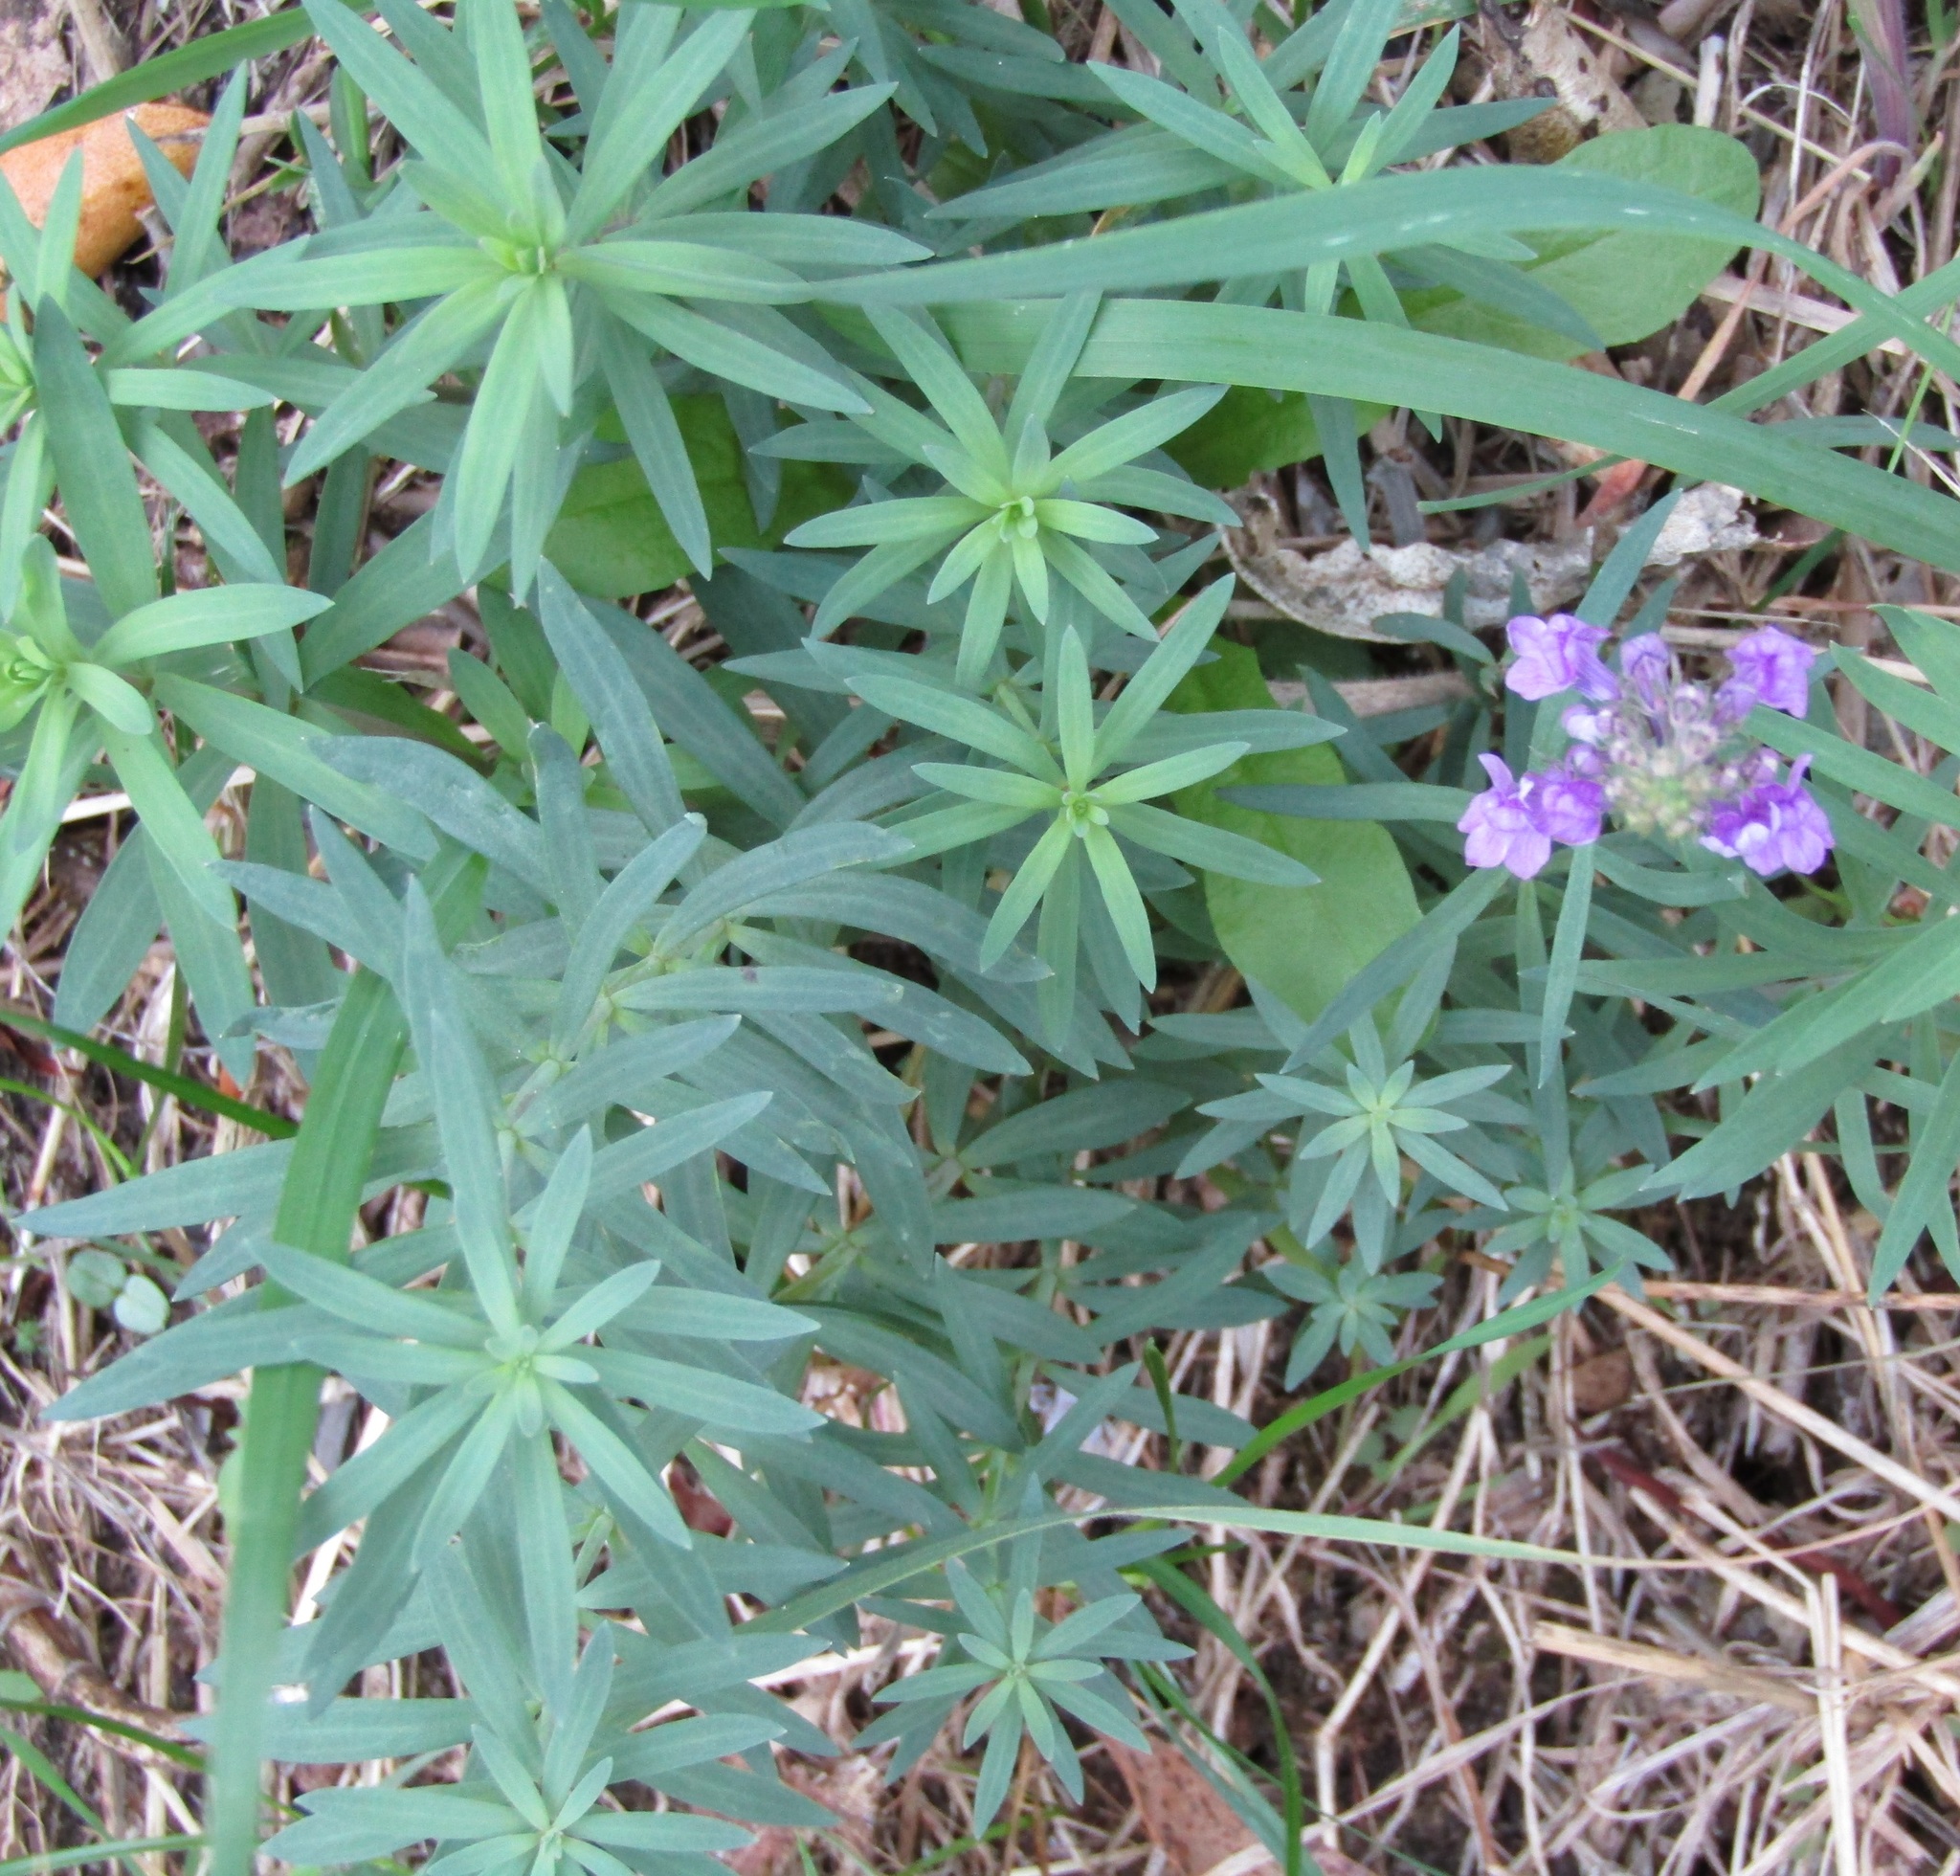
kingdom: Plantae
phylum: Tracheophyta
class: Magnoliopsida
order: Lamiales
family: Plantaginaceae
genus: Linaria
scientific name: Linaria purpurea
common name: Purple toadflax
